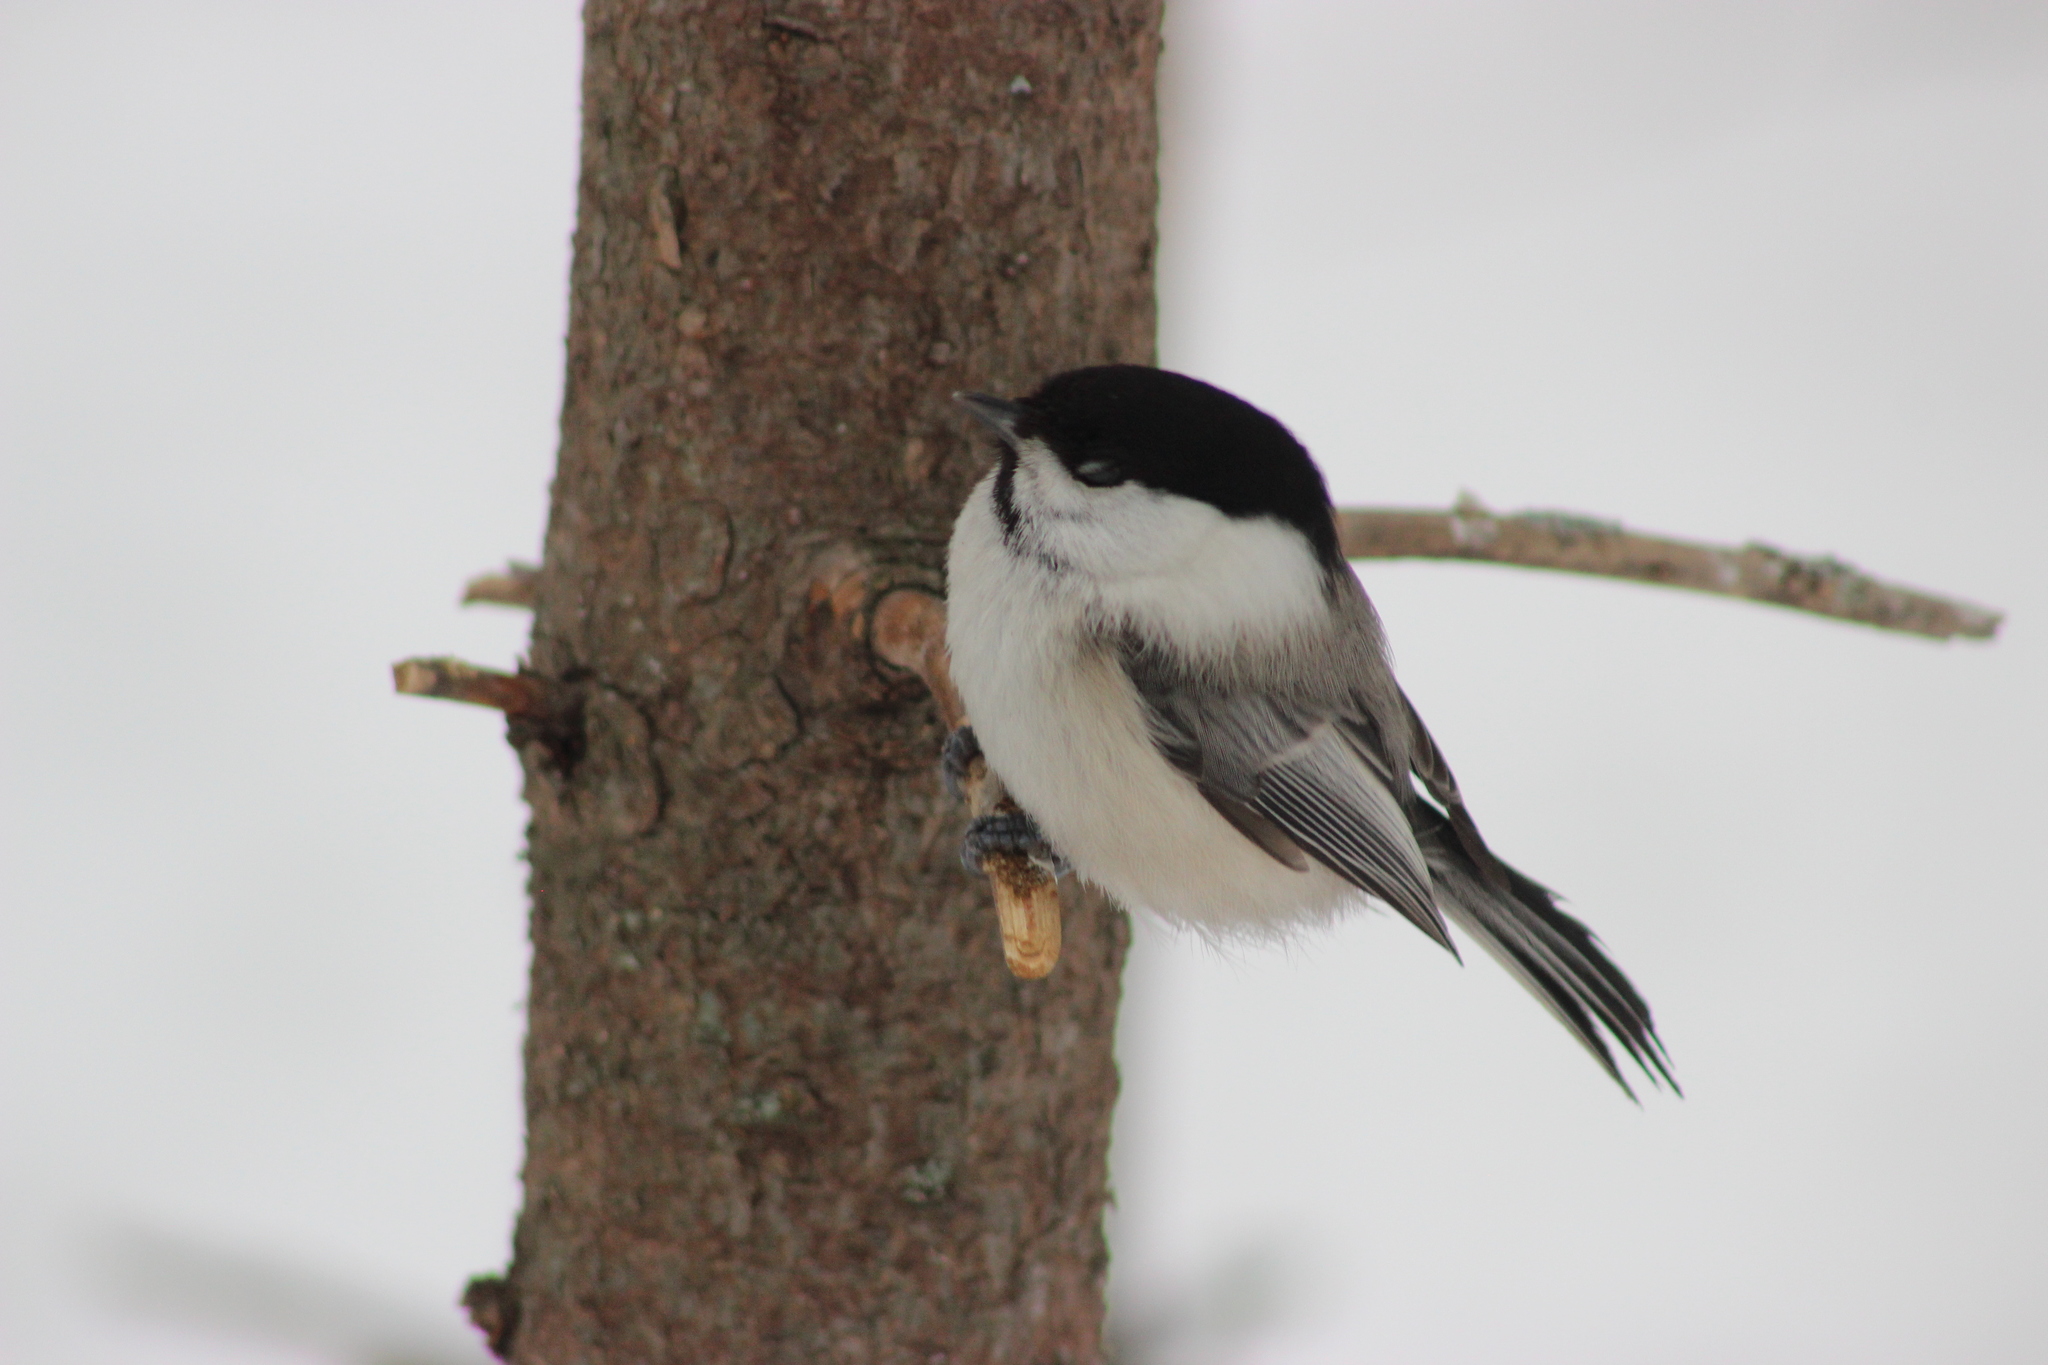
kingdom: Animalia
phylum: Chordata
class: Aves
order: Passeriformes
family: Paridae
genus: Poecile
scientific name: Poecile montanus
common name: Willow tit
